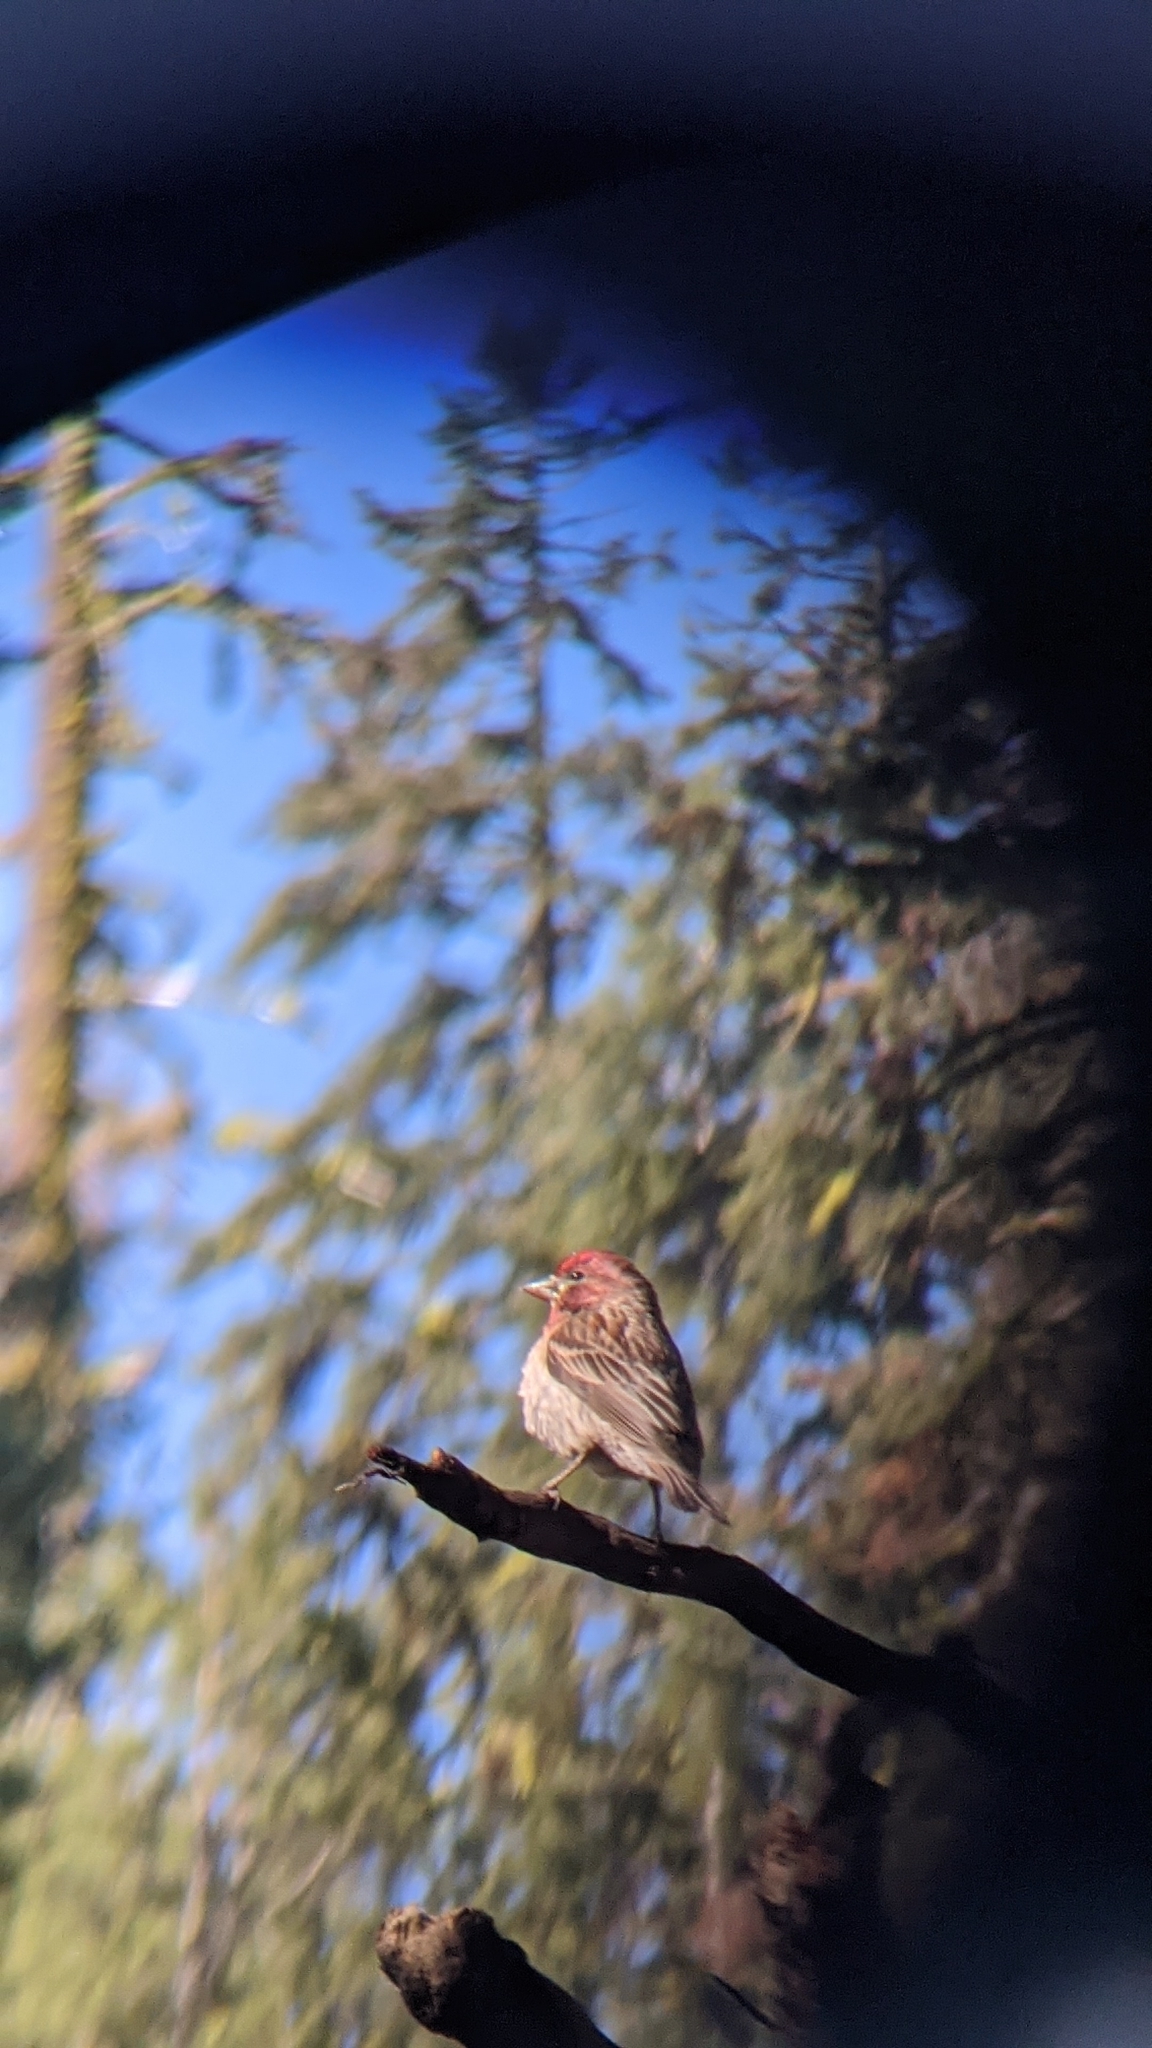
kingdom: Animalia
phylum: Chordata
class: Aves
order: Passeriformes
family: Fringillidae
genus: Haemorhous
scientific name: Haemorhous cassinii
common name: Cassin's finch
